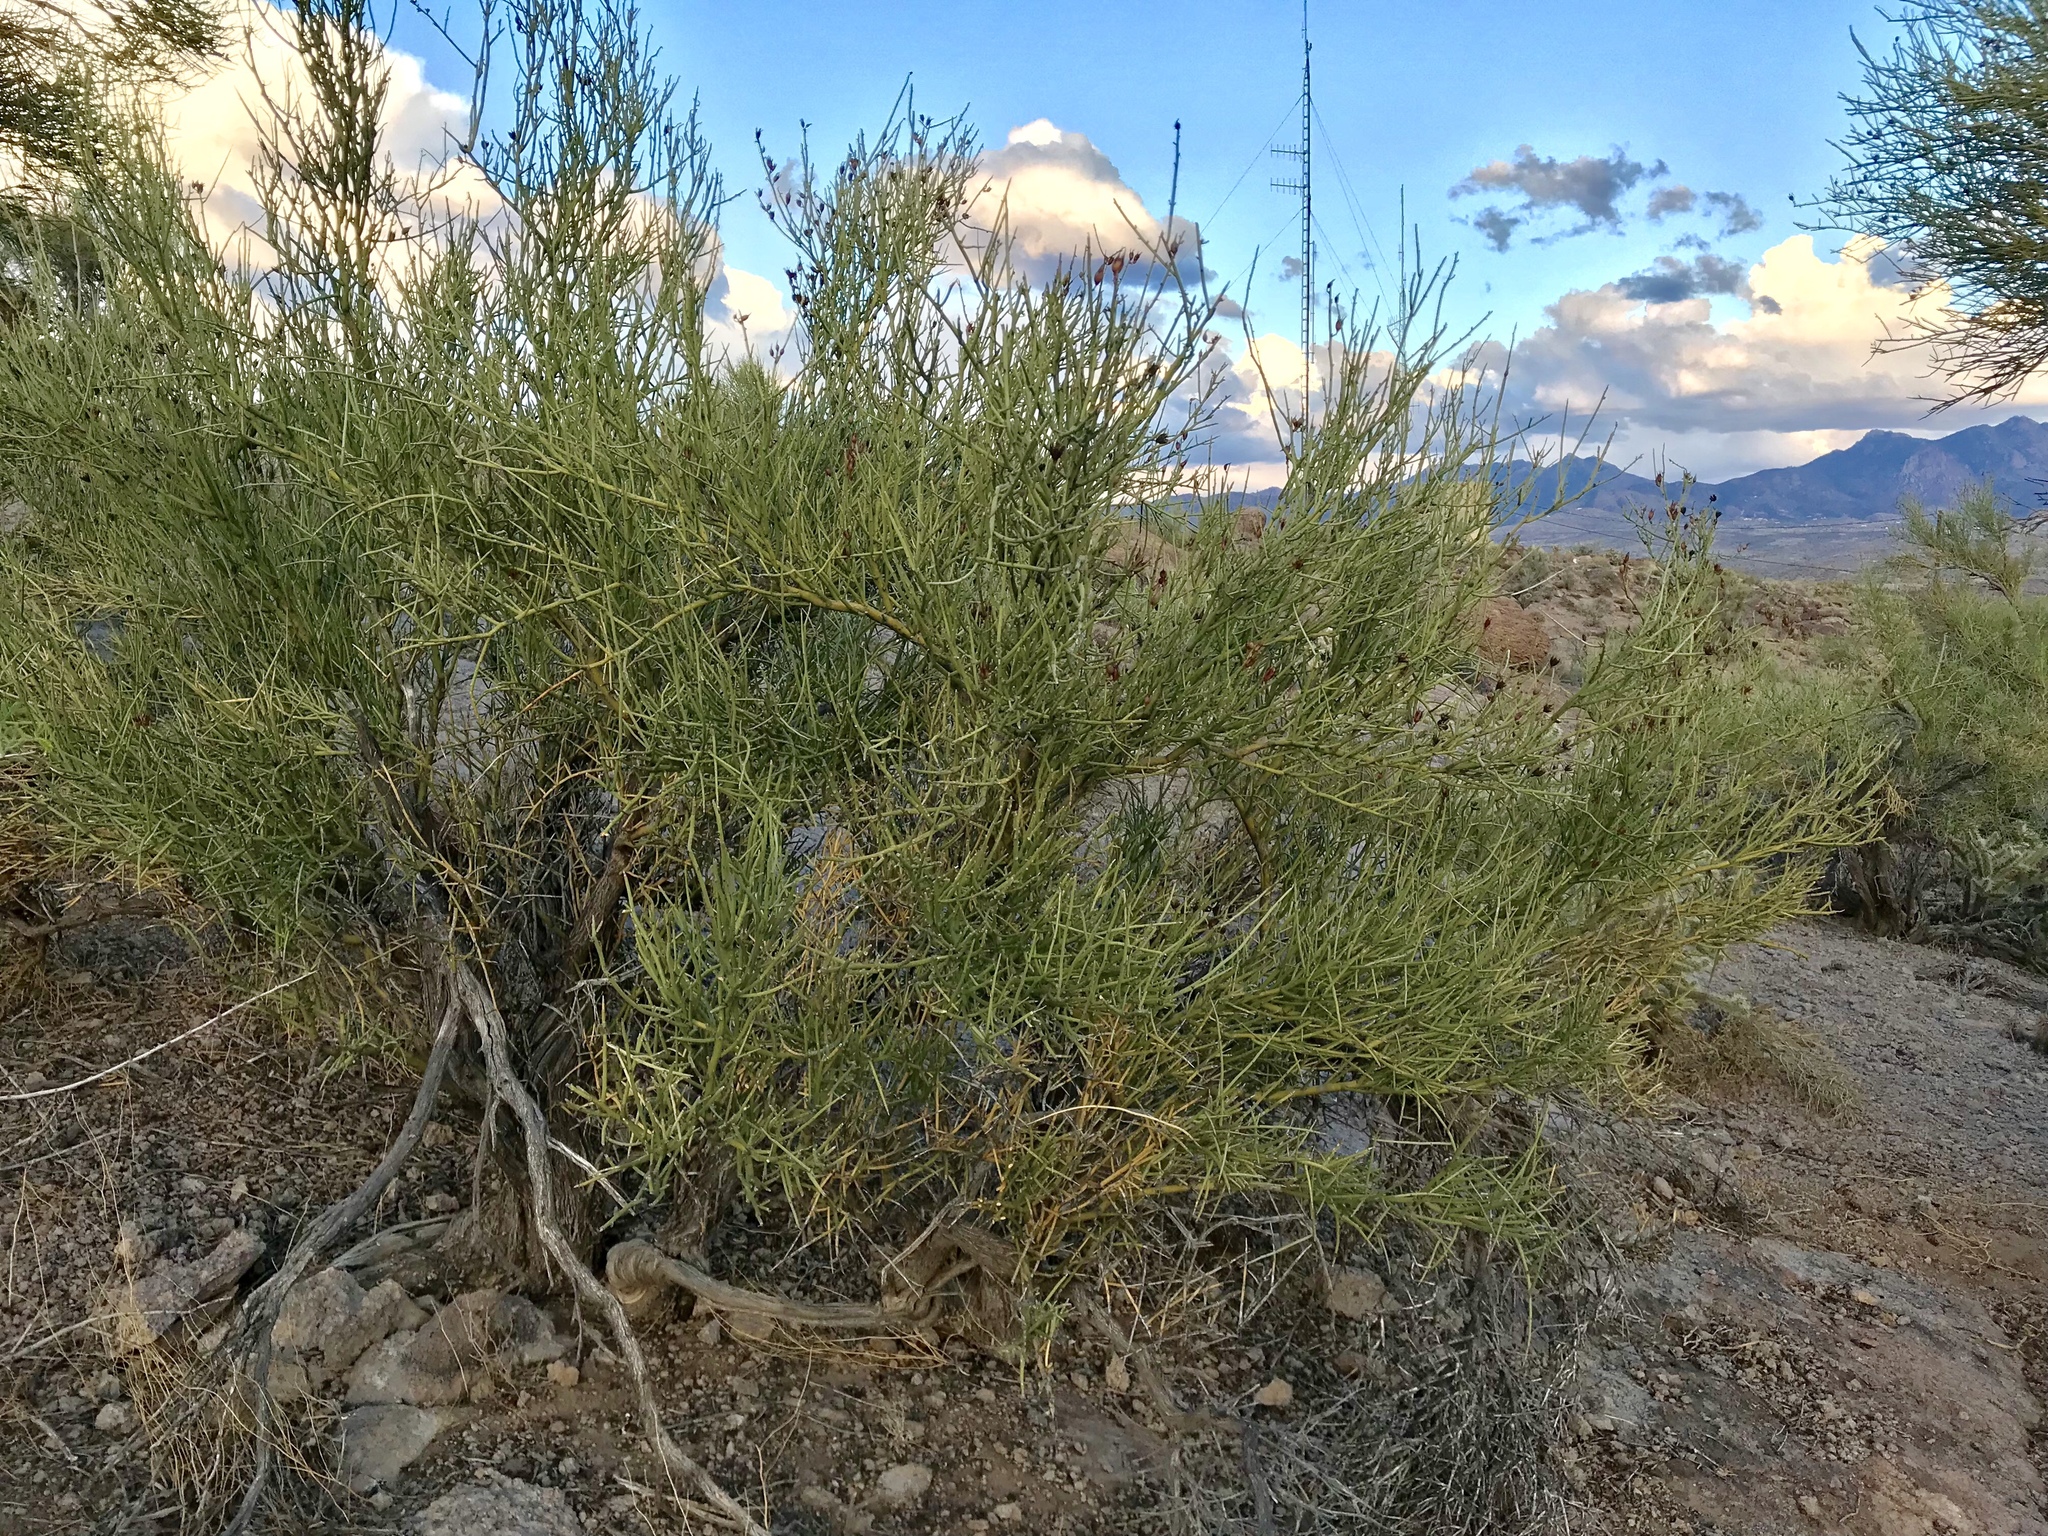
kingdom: Plantae
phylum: Tracheophyta
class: Magnoliopsida
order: Celastrales
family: Celastraceae
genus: Canotia
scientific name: Canotia holacantha
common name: Crucifixion thorns
